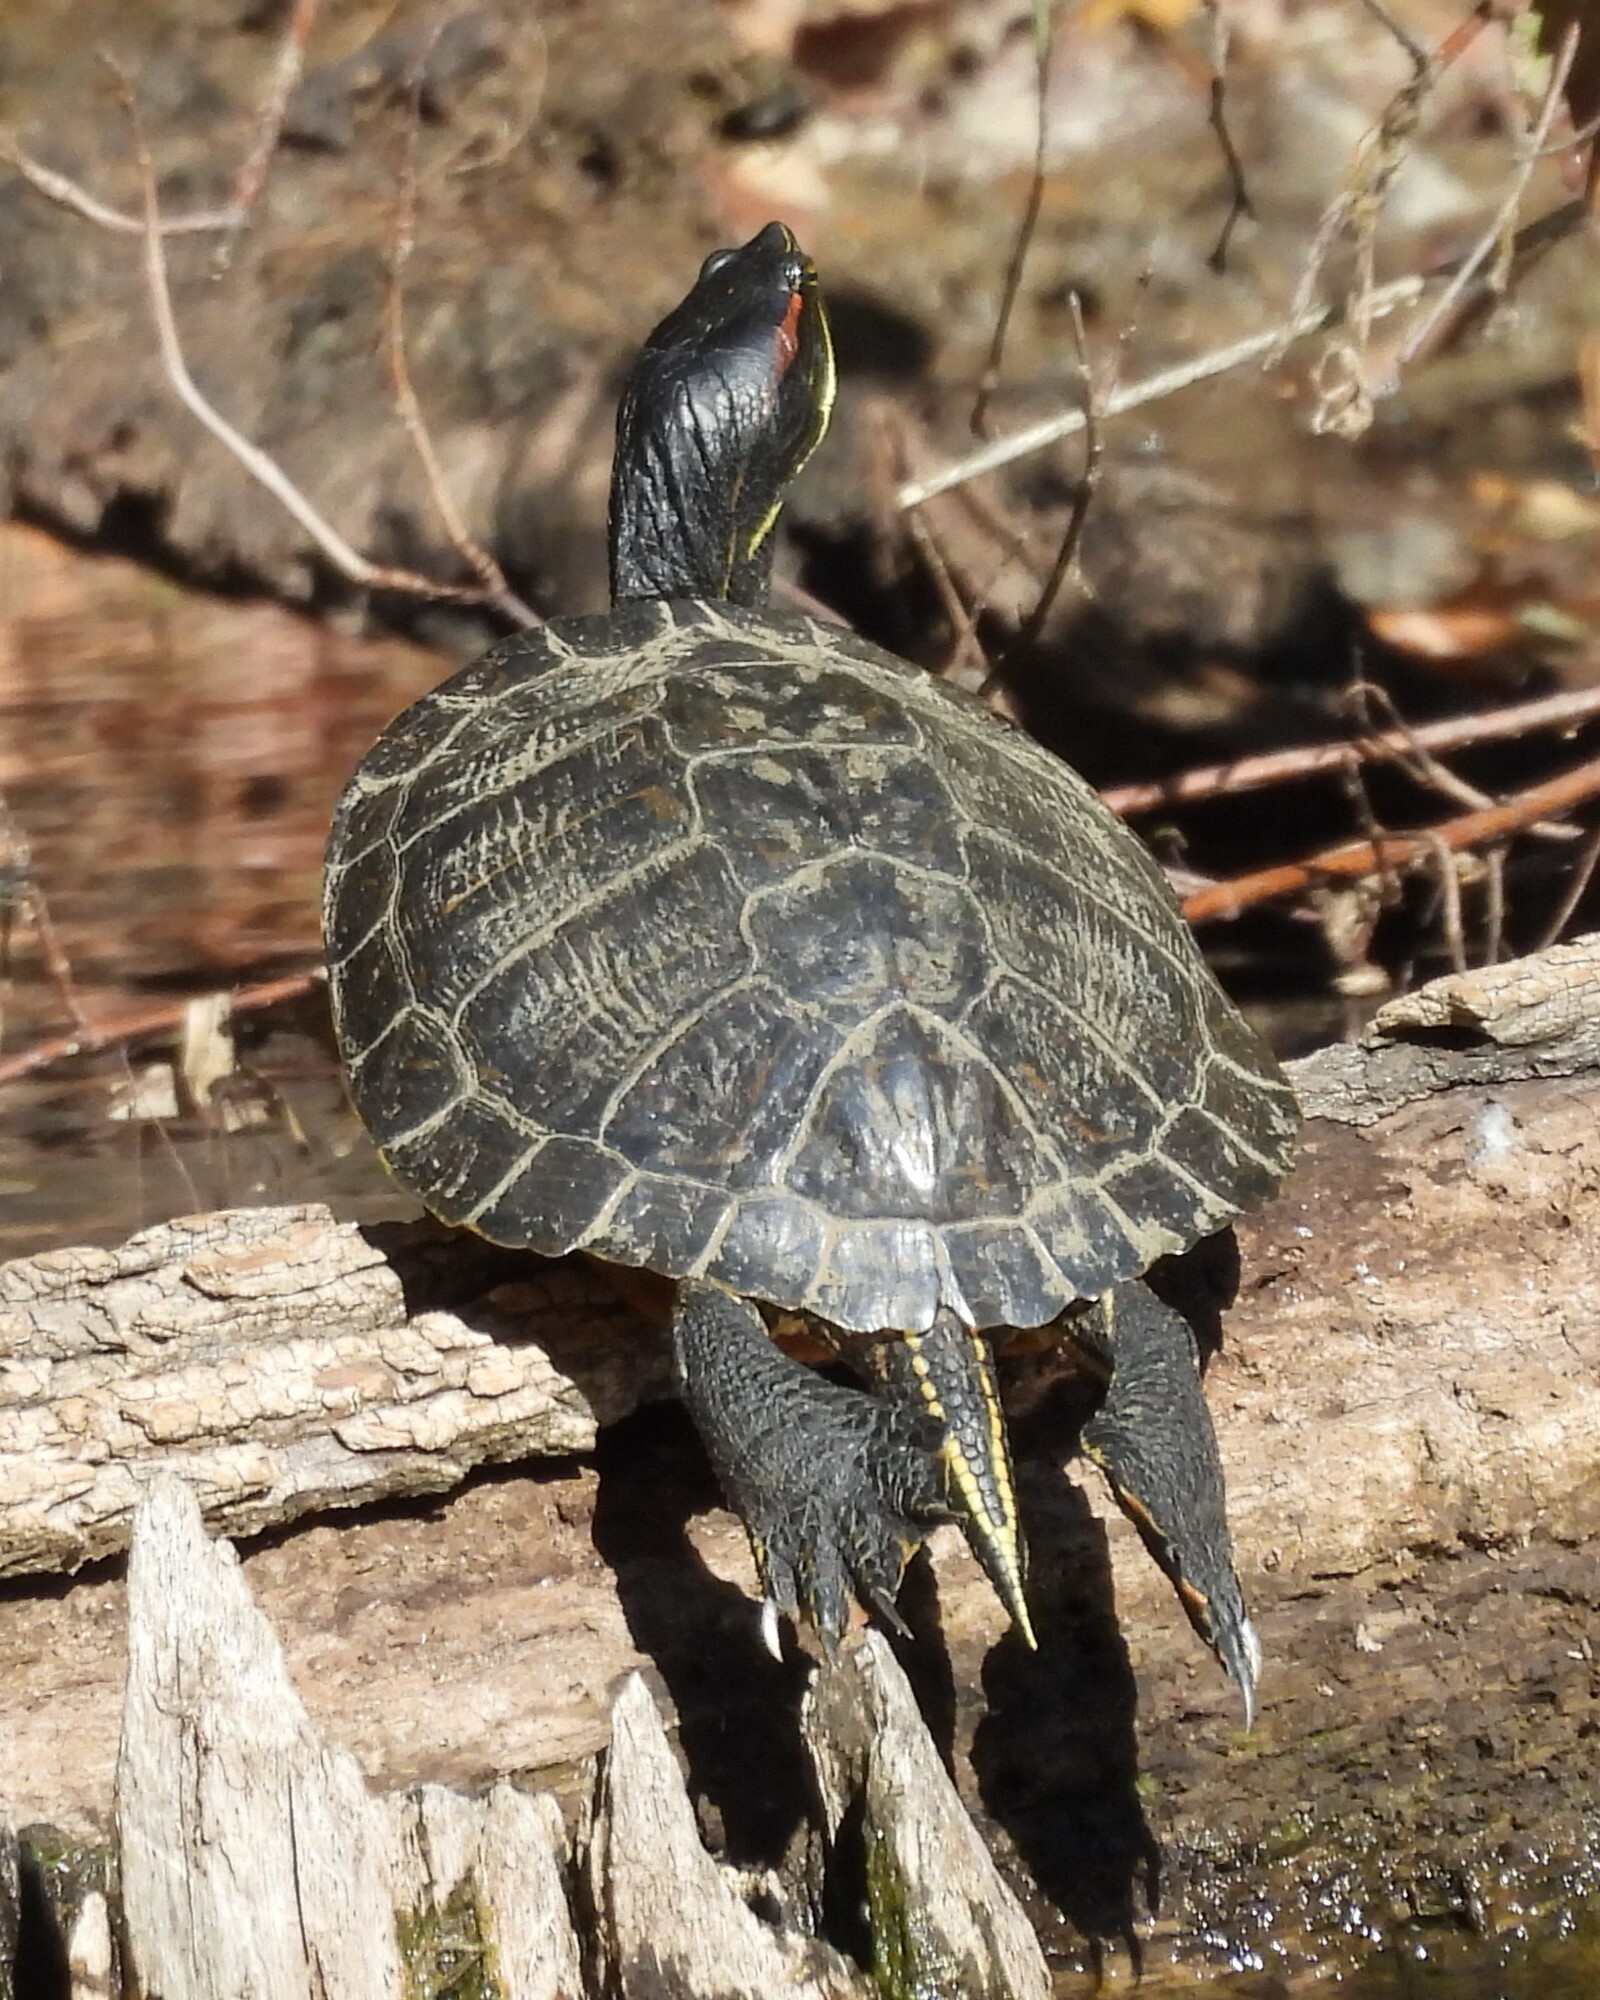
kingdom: Animalia
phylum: Chordata
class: Testudines
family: Emydidae
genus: Trachemys
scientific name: Trachemys scripta
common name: Slider
